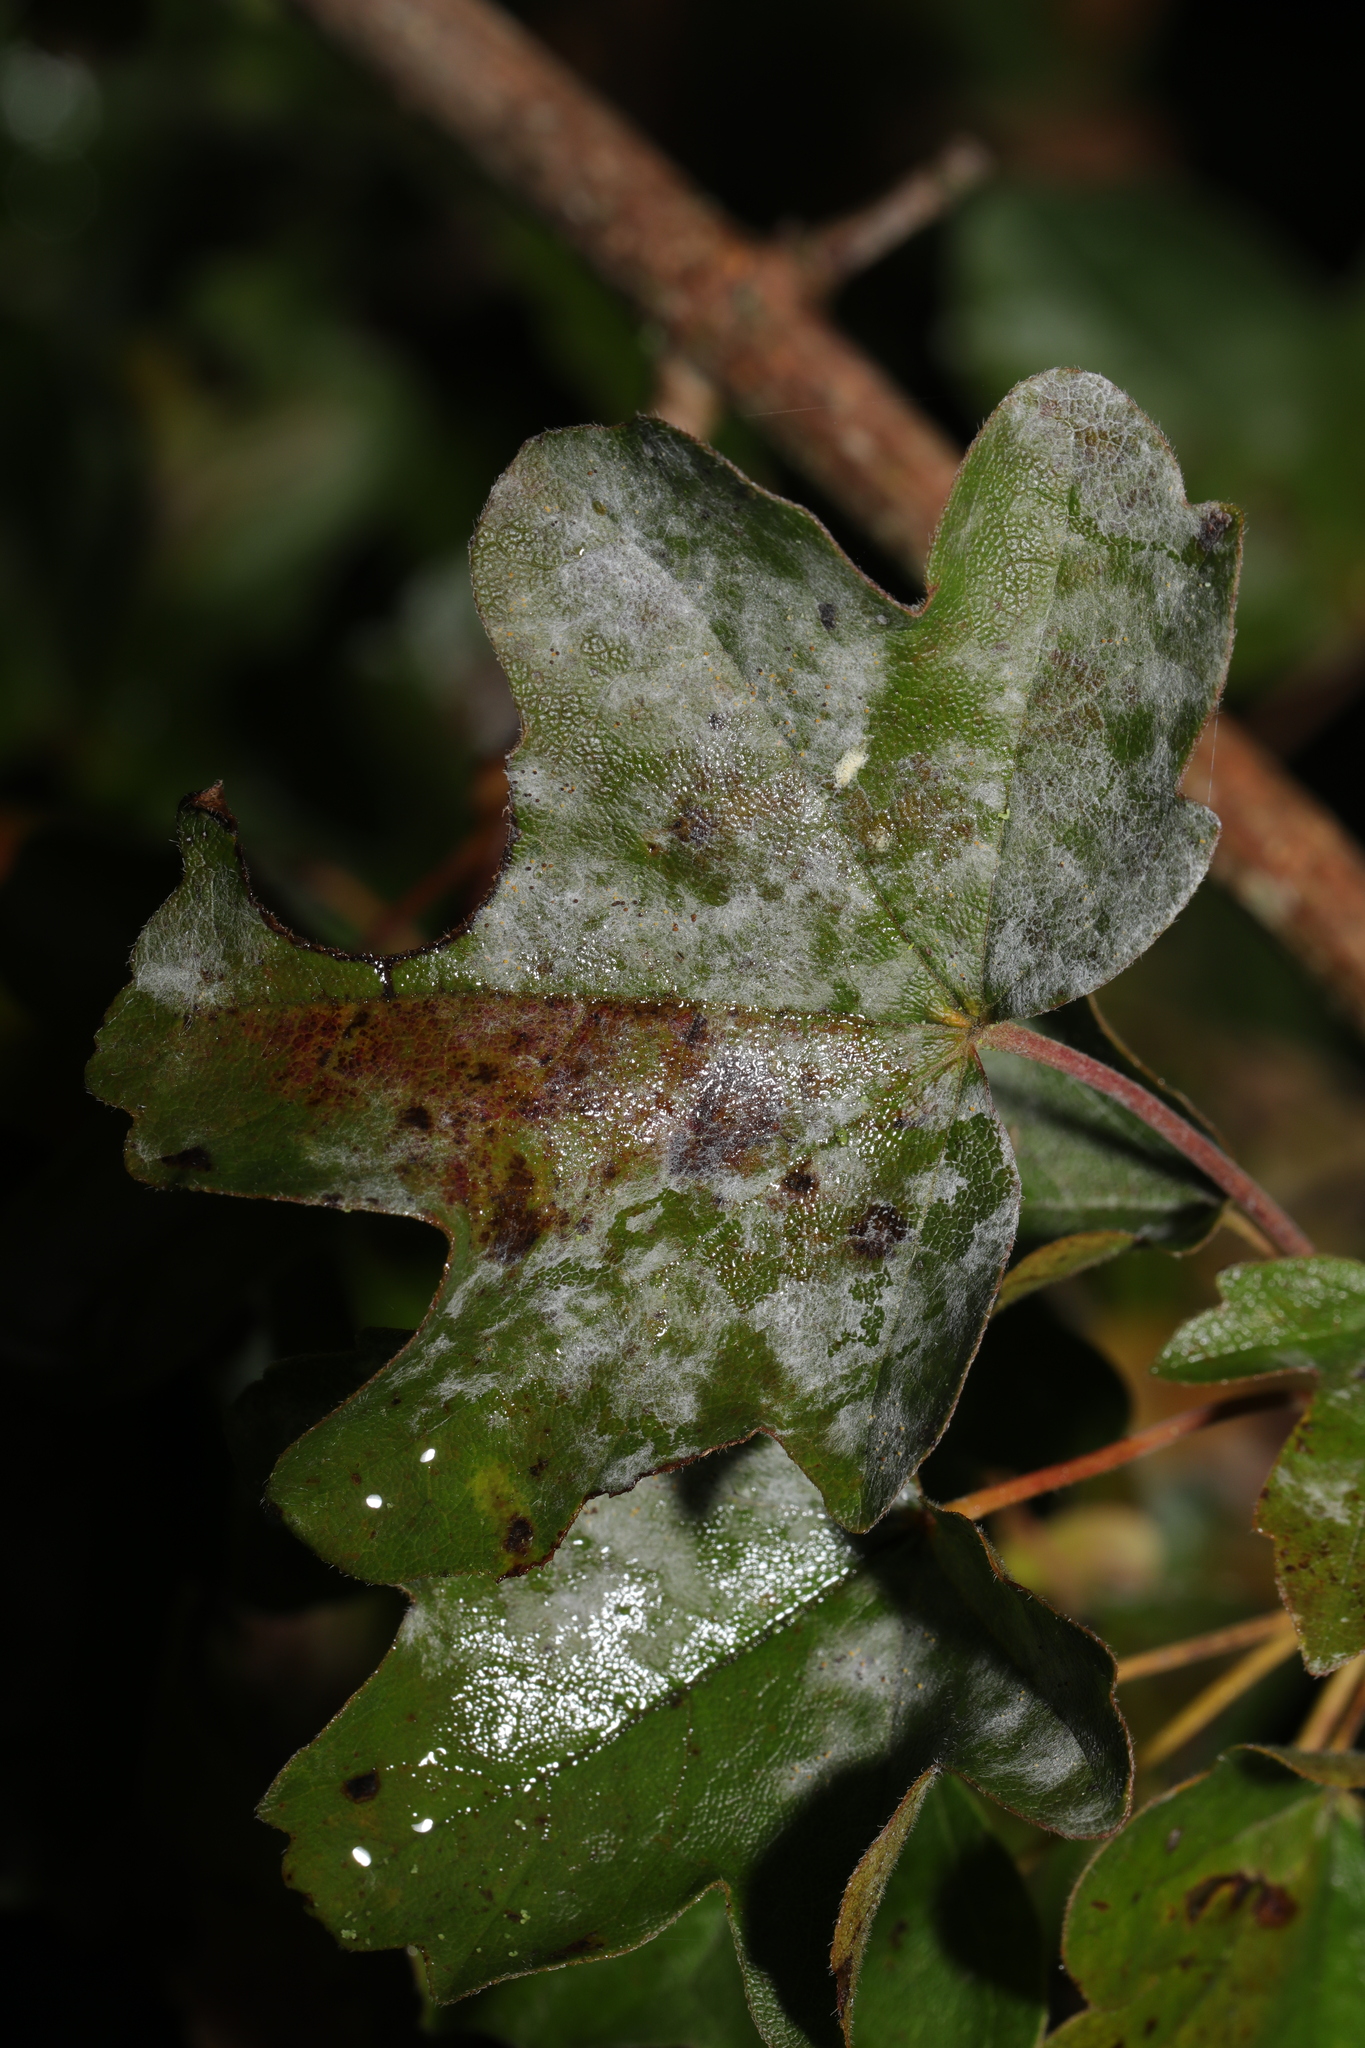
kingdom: Fungi
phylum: Ascomycota
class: Leotiomycetes
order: Helotiales
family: Erysiphaceae
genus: Sawadaea
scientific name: Sawadaea bicornis
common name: Maple mildew
